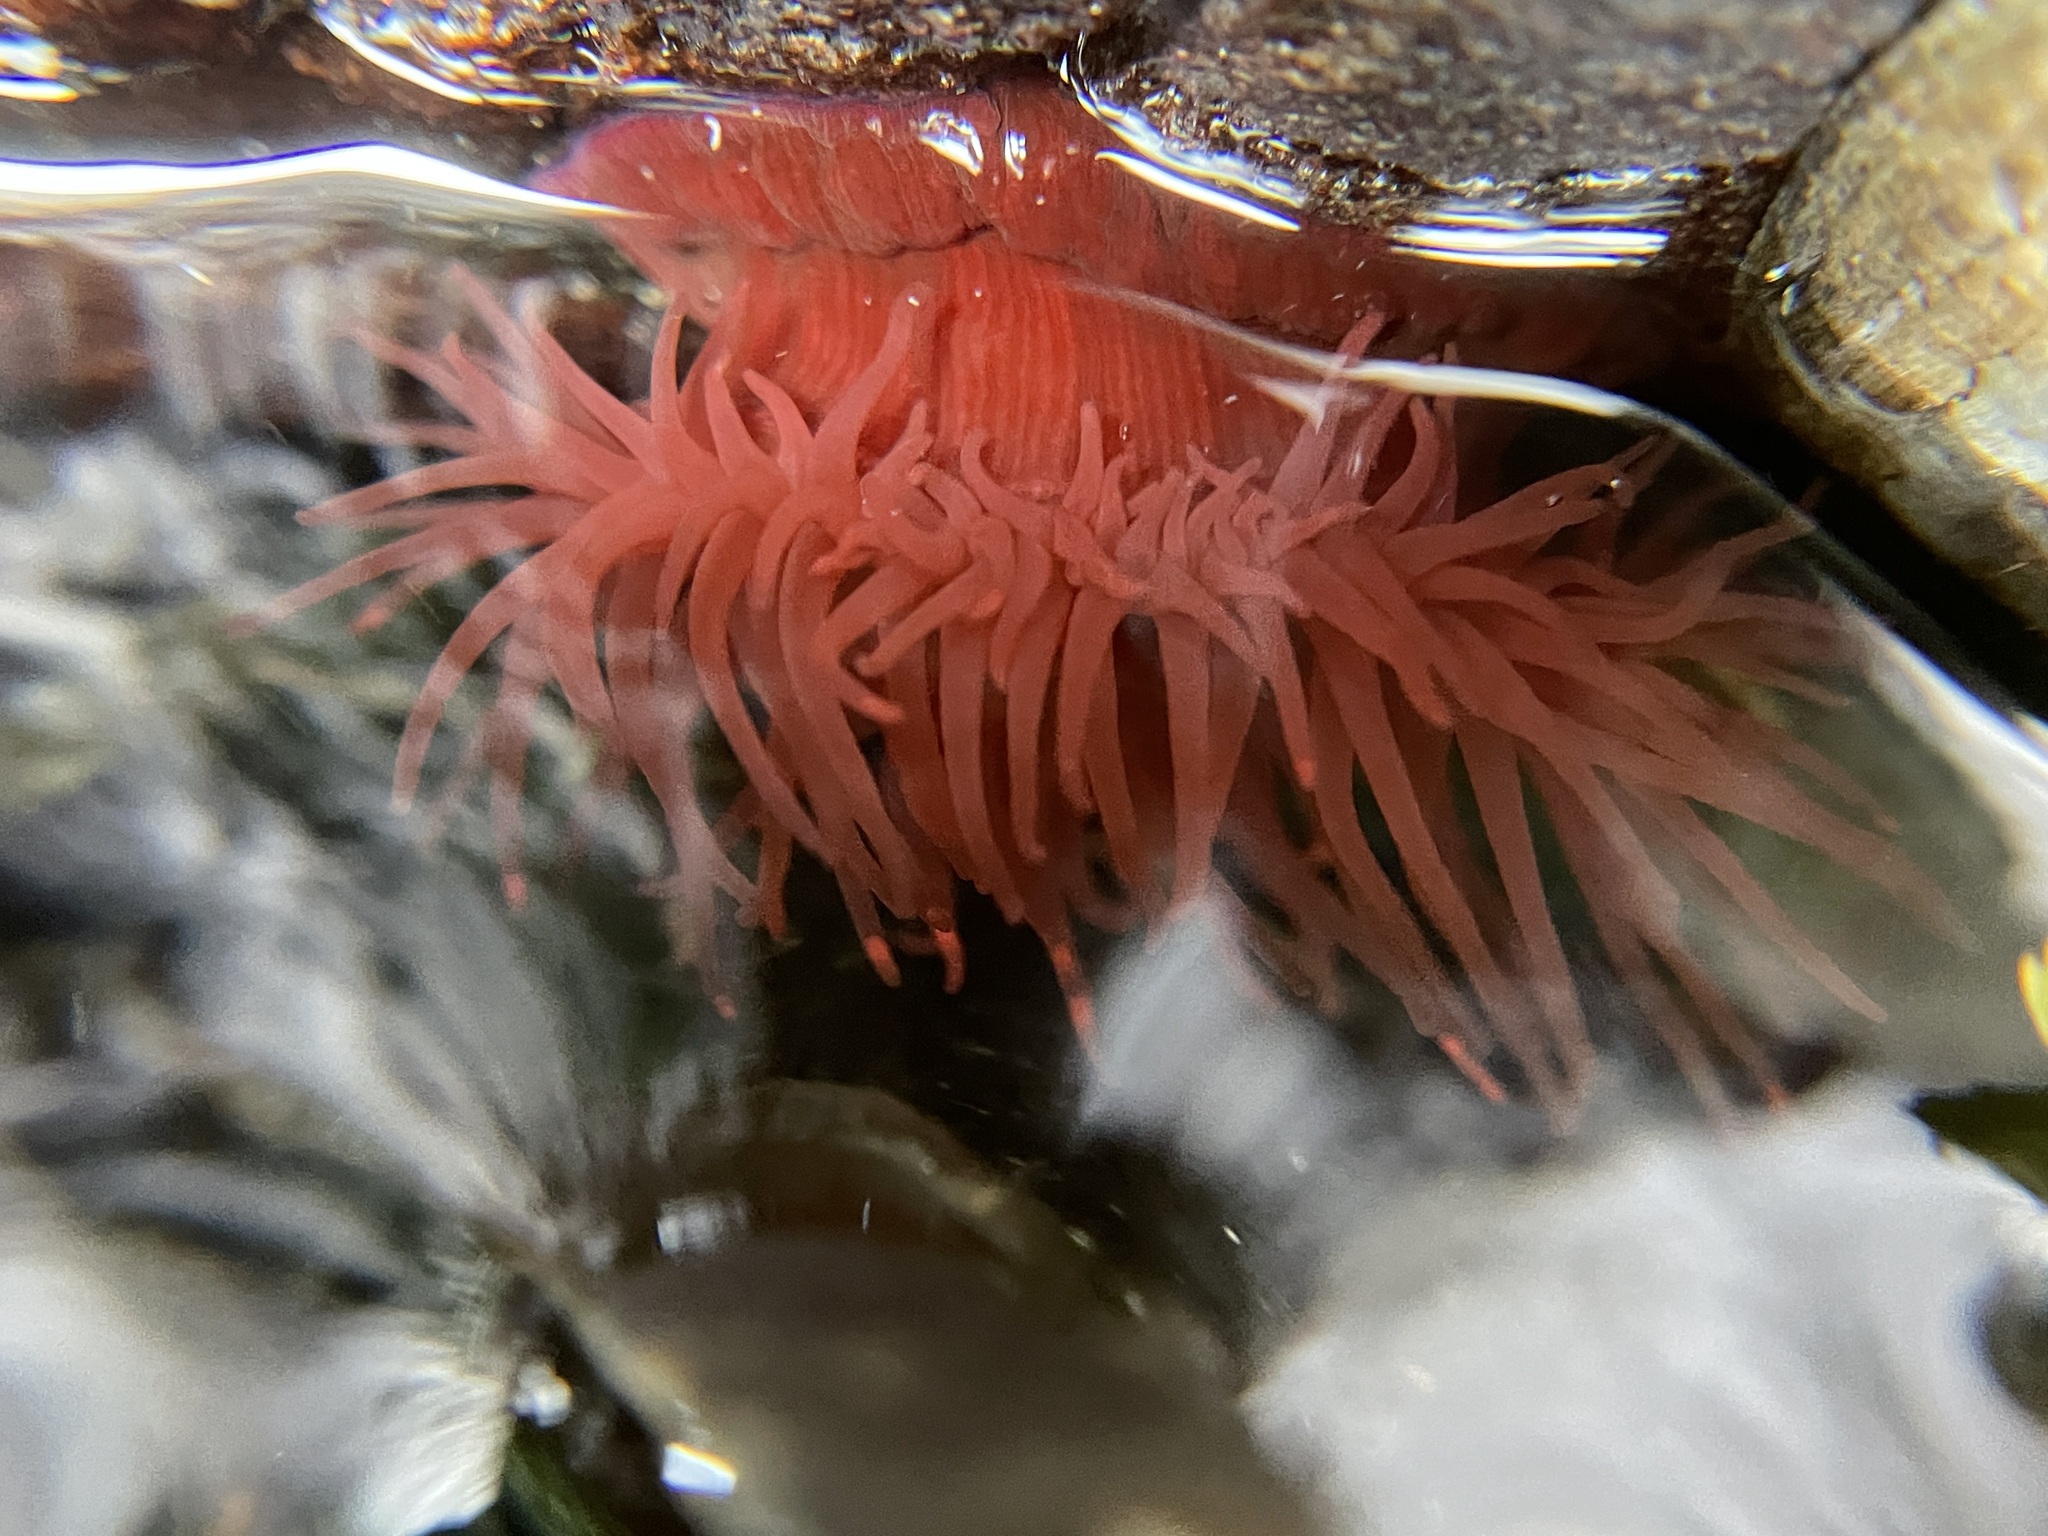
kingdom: Animalia
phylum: Cnidaria
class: Anthozoa
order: Actiniaria
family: Actiniidae
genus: Actinia
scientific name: Actinia equina
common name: Beadlet anemone
